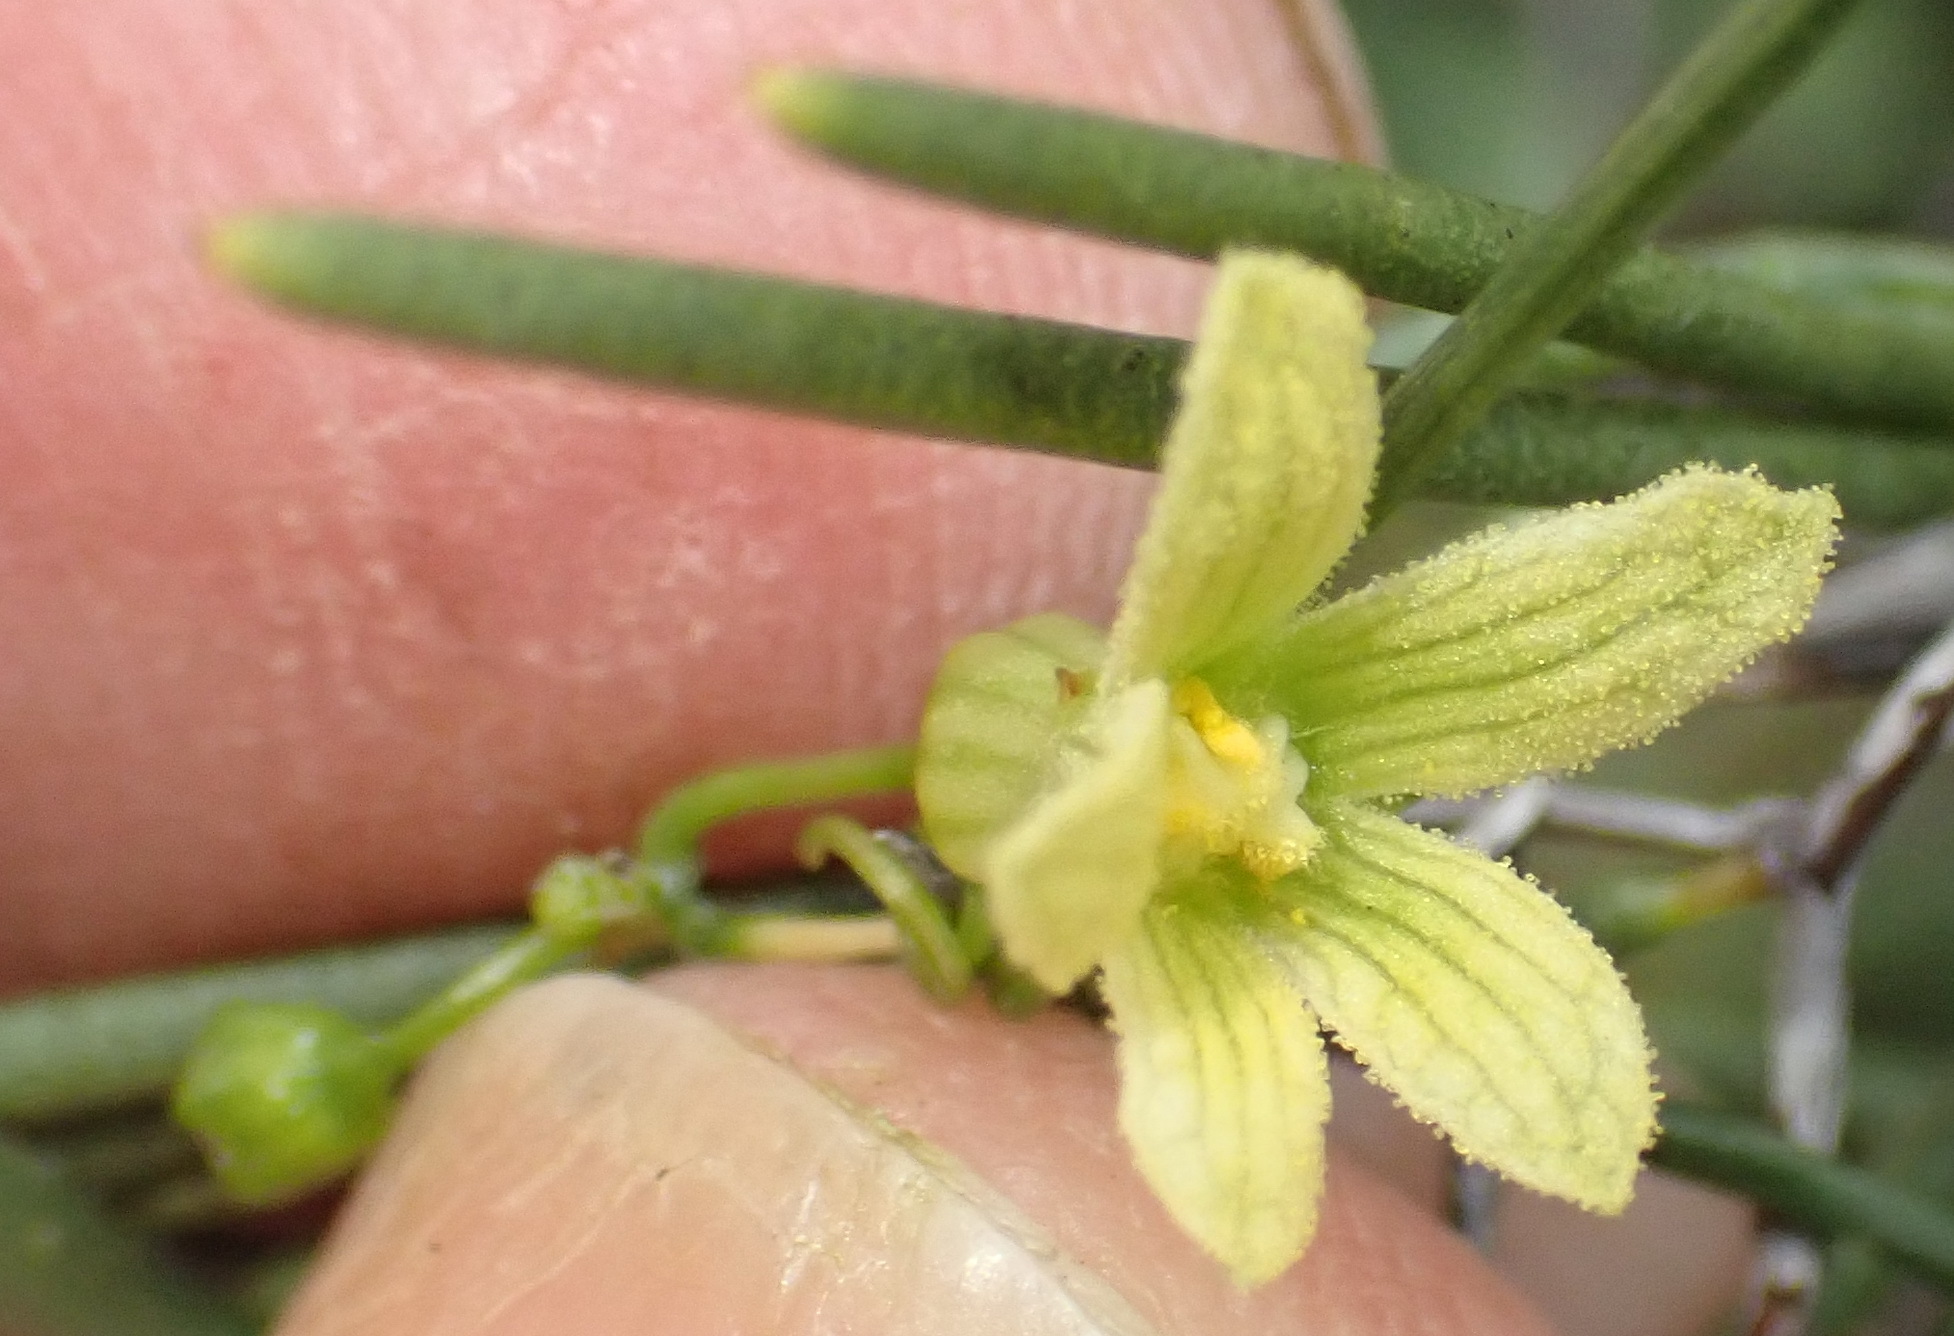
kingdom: Plantae
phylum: Tracheophyta
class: Magnoliopsida
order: Cucurbitales
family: Cucurbitaceae
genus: Kedrostis
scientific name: Kedrostis capensis
